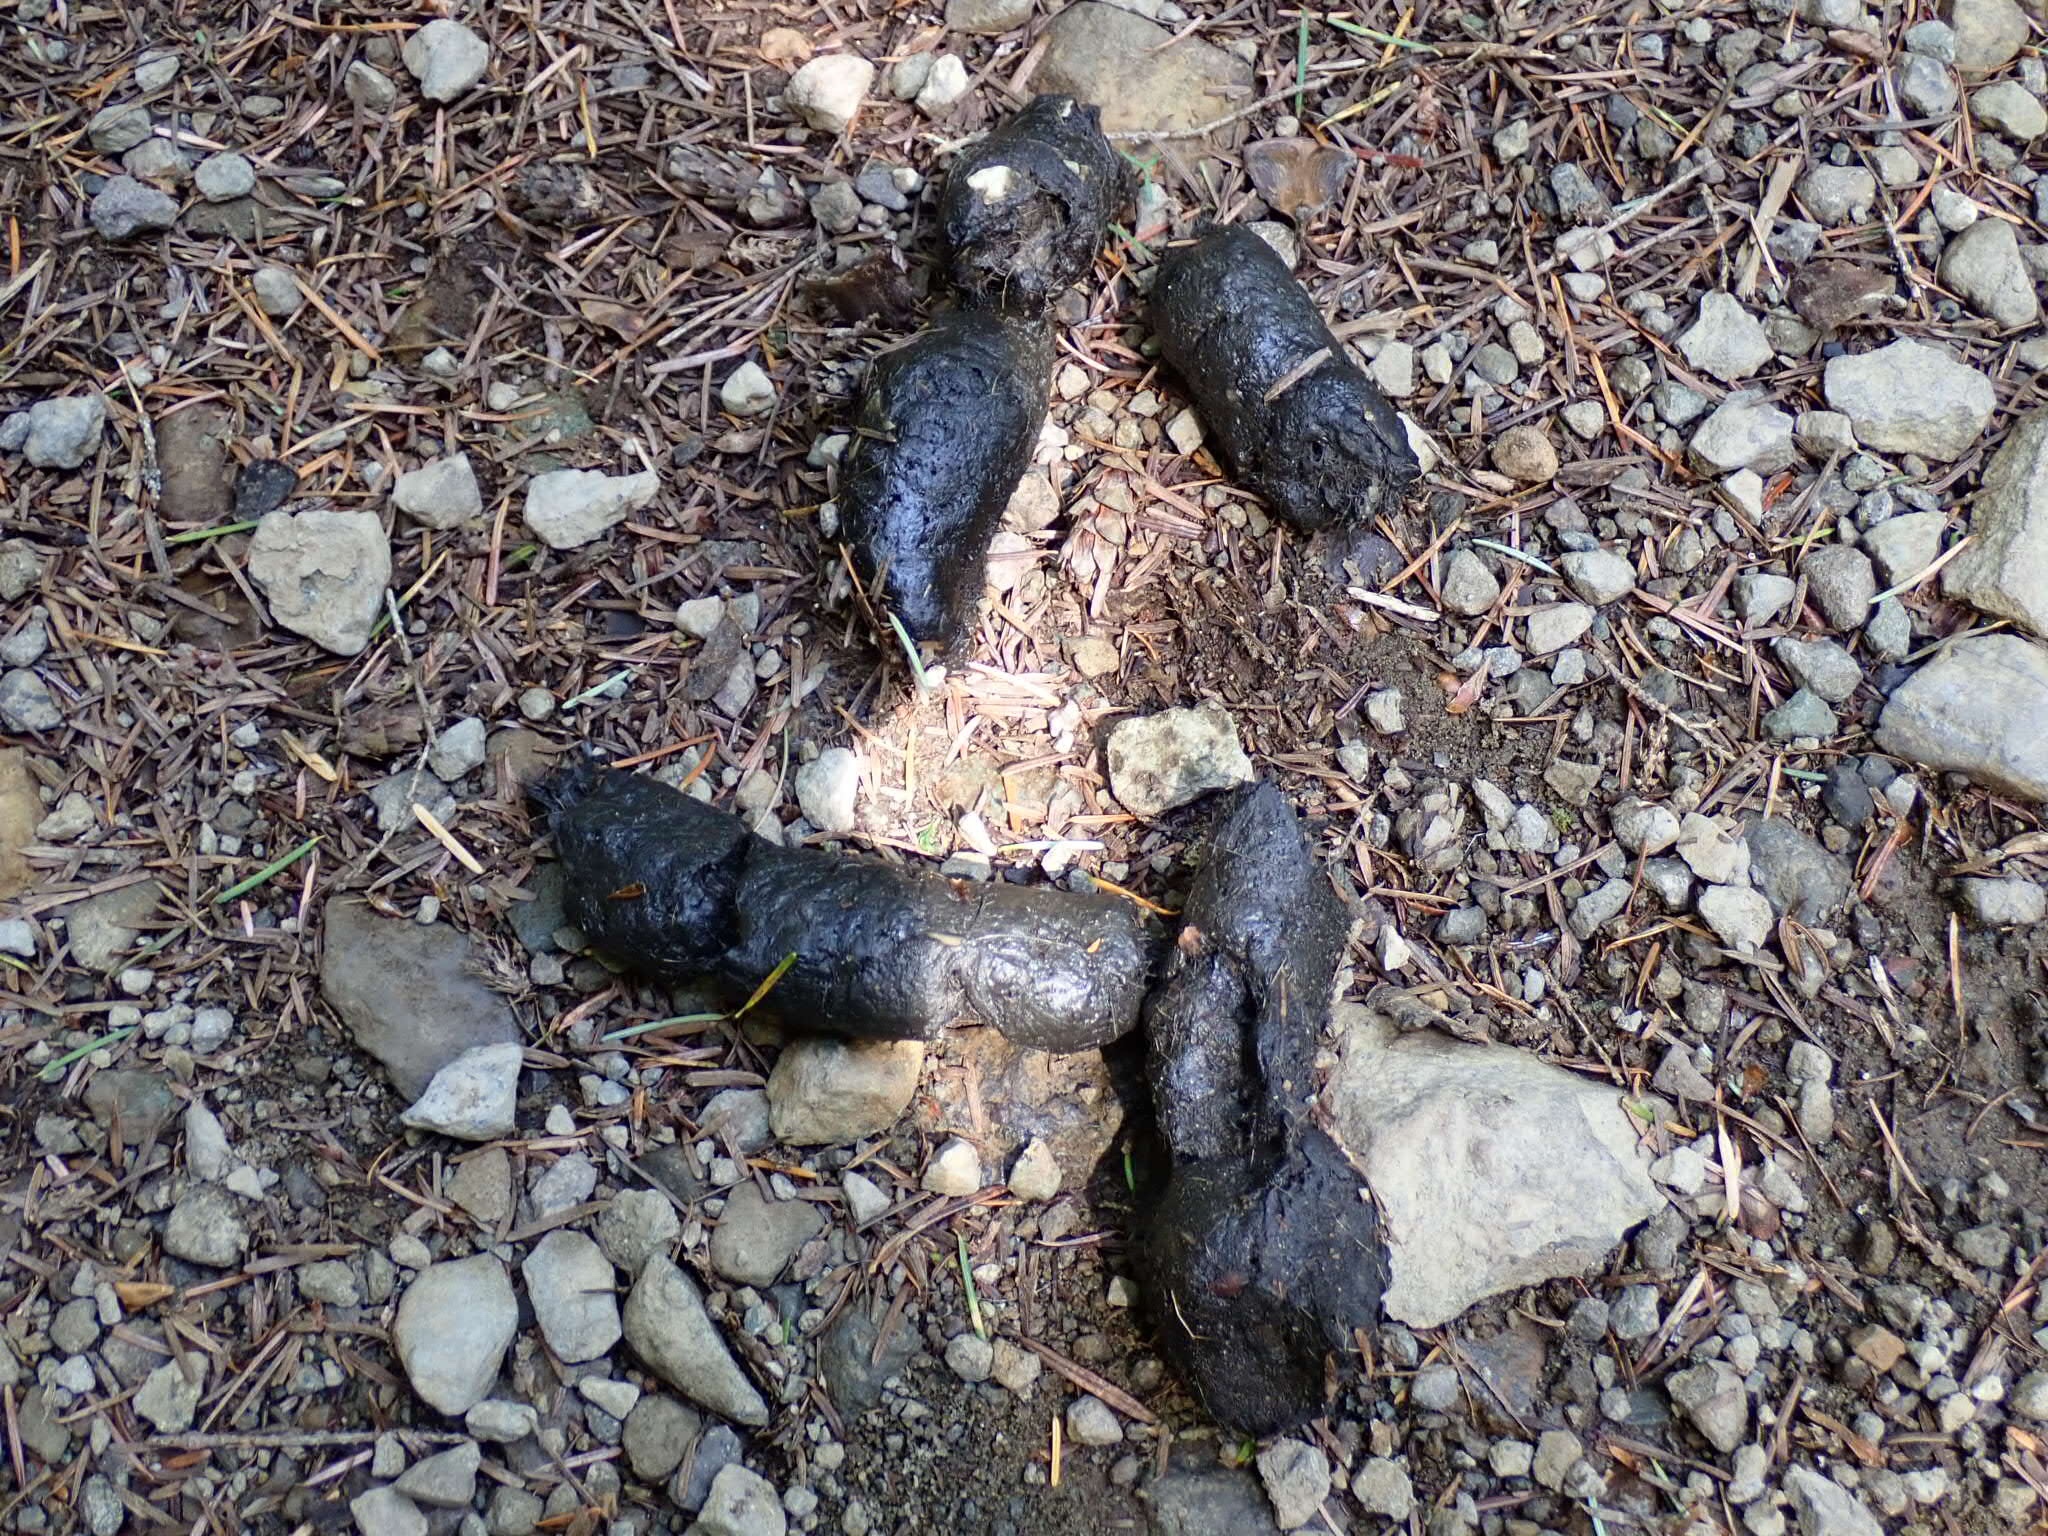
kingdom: Animalia
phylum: Chordata
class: Mammalia
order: Carnivora
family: Ursidae
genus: Ursus
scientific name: Ursus americanus
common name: American black bear
